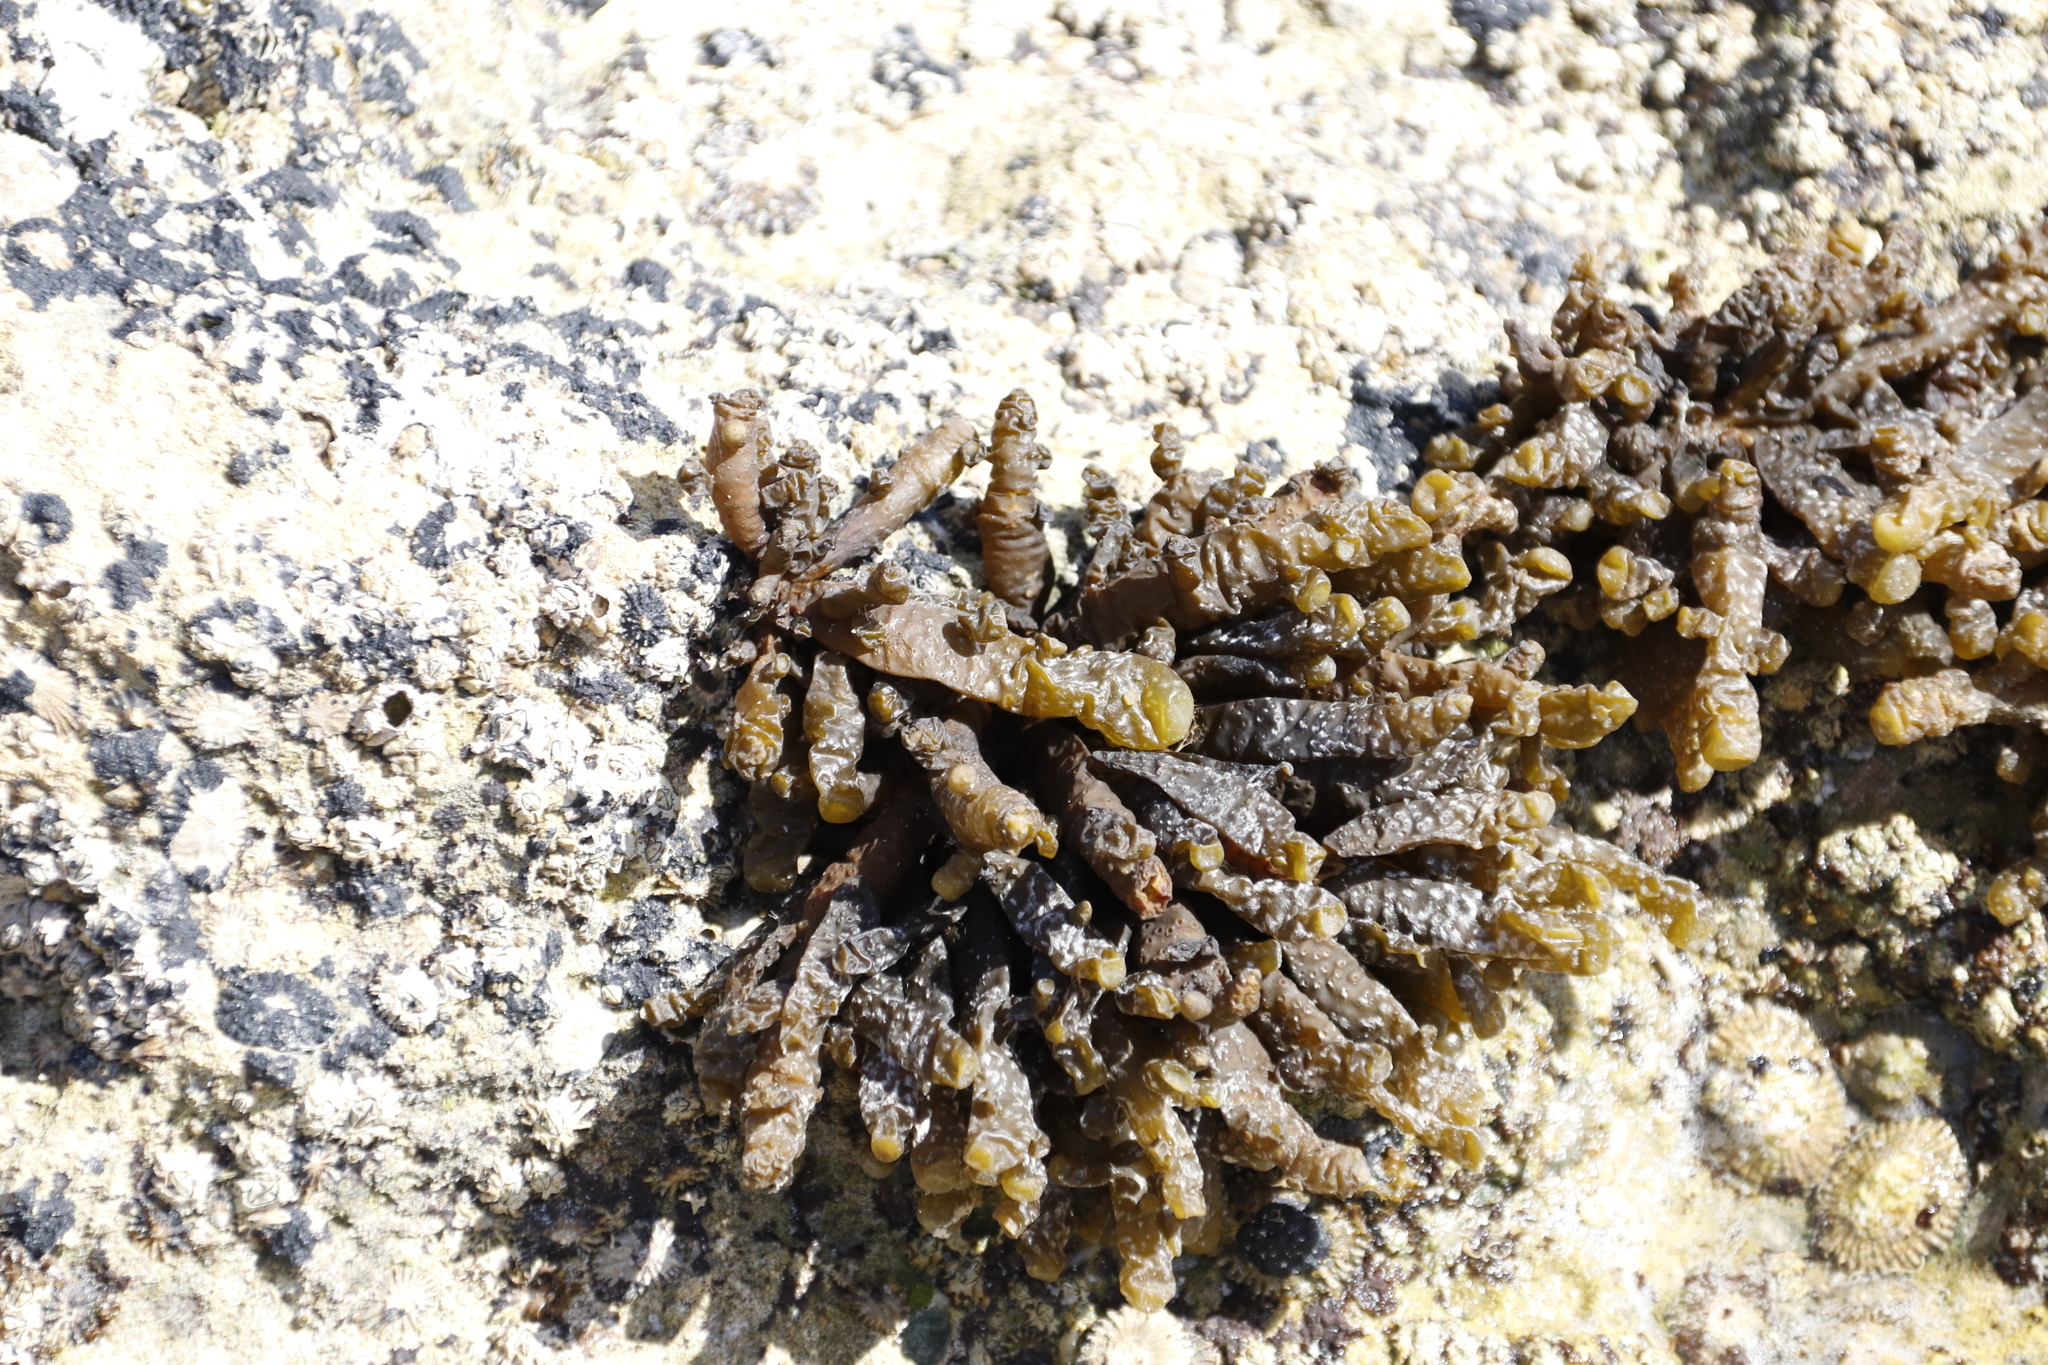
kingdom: Chromista
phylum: Ochrophyta
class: Phaeophyceae
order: Scytothamnales
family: Splachnidiaceae
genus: Splachnidium
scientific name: Splachnidium rugosum
